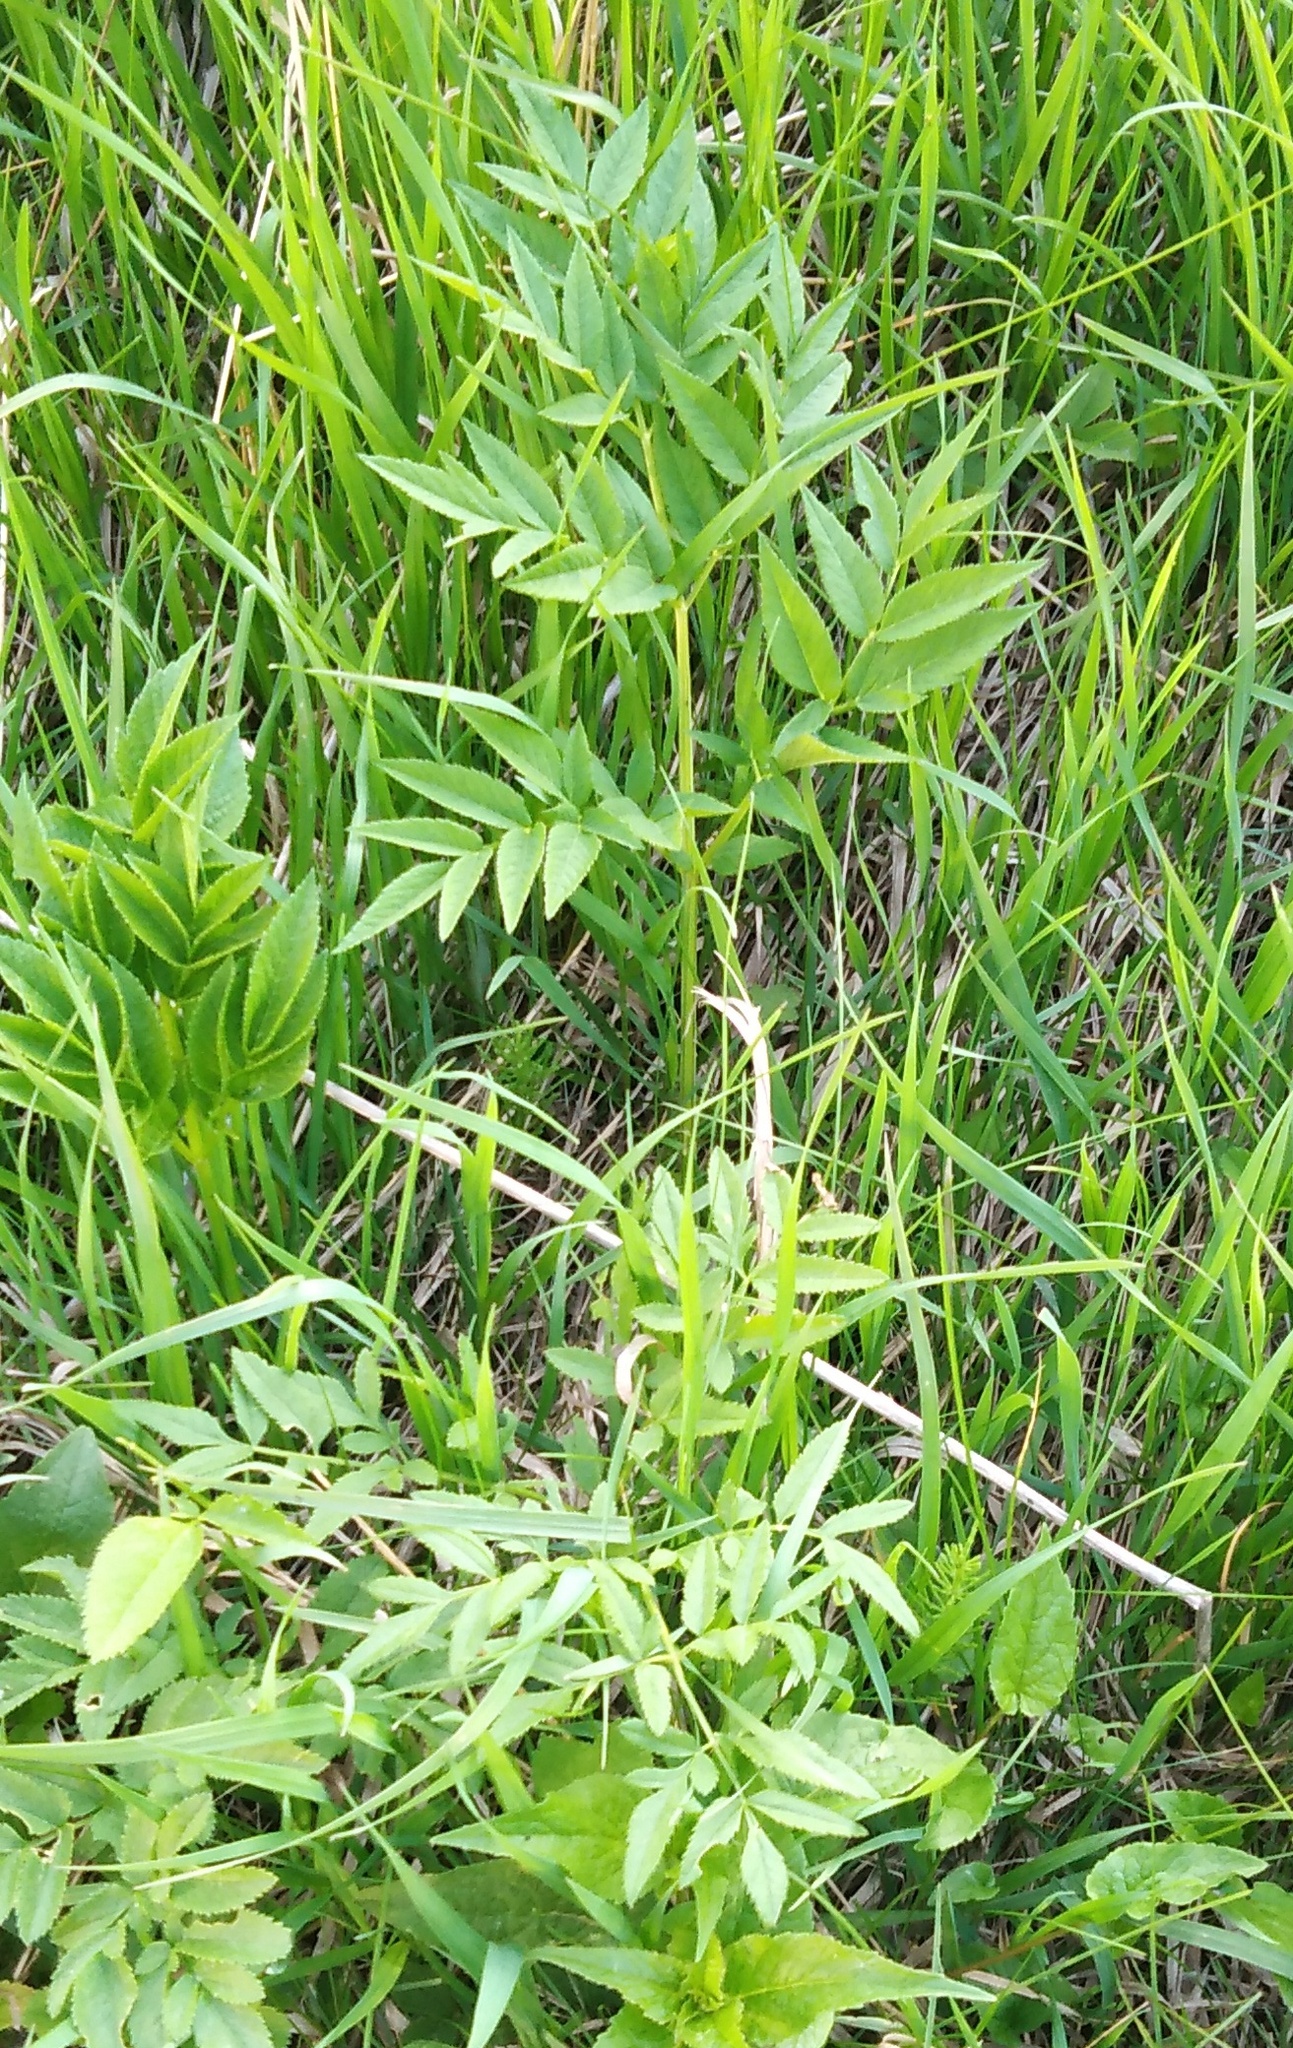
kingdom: Plantae
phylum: Tracheophyta
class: Magnoliopsida
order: Apiales
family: Apiaceae
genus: Angelica
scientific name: Angelica sylvestris
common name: Wild angelica
